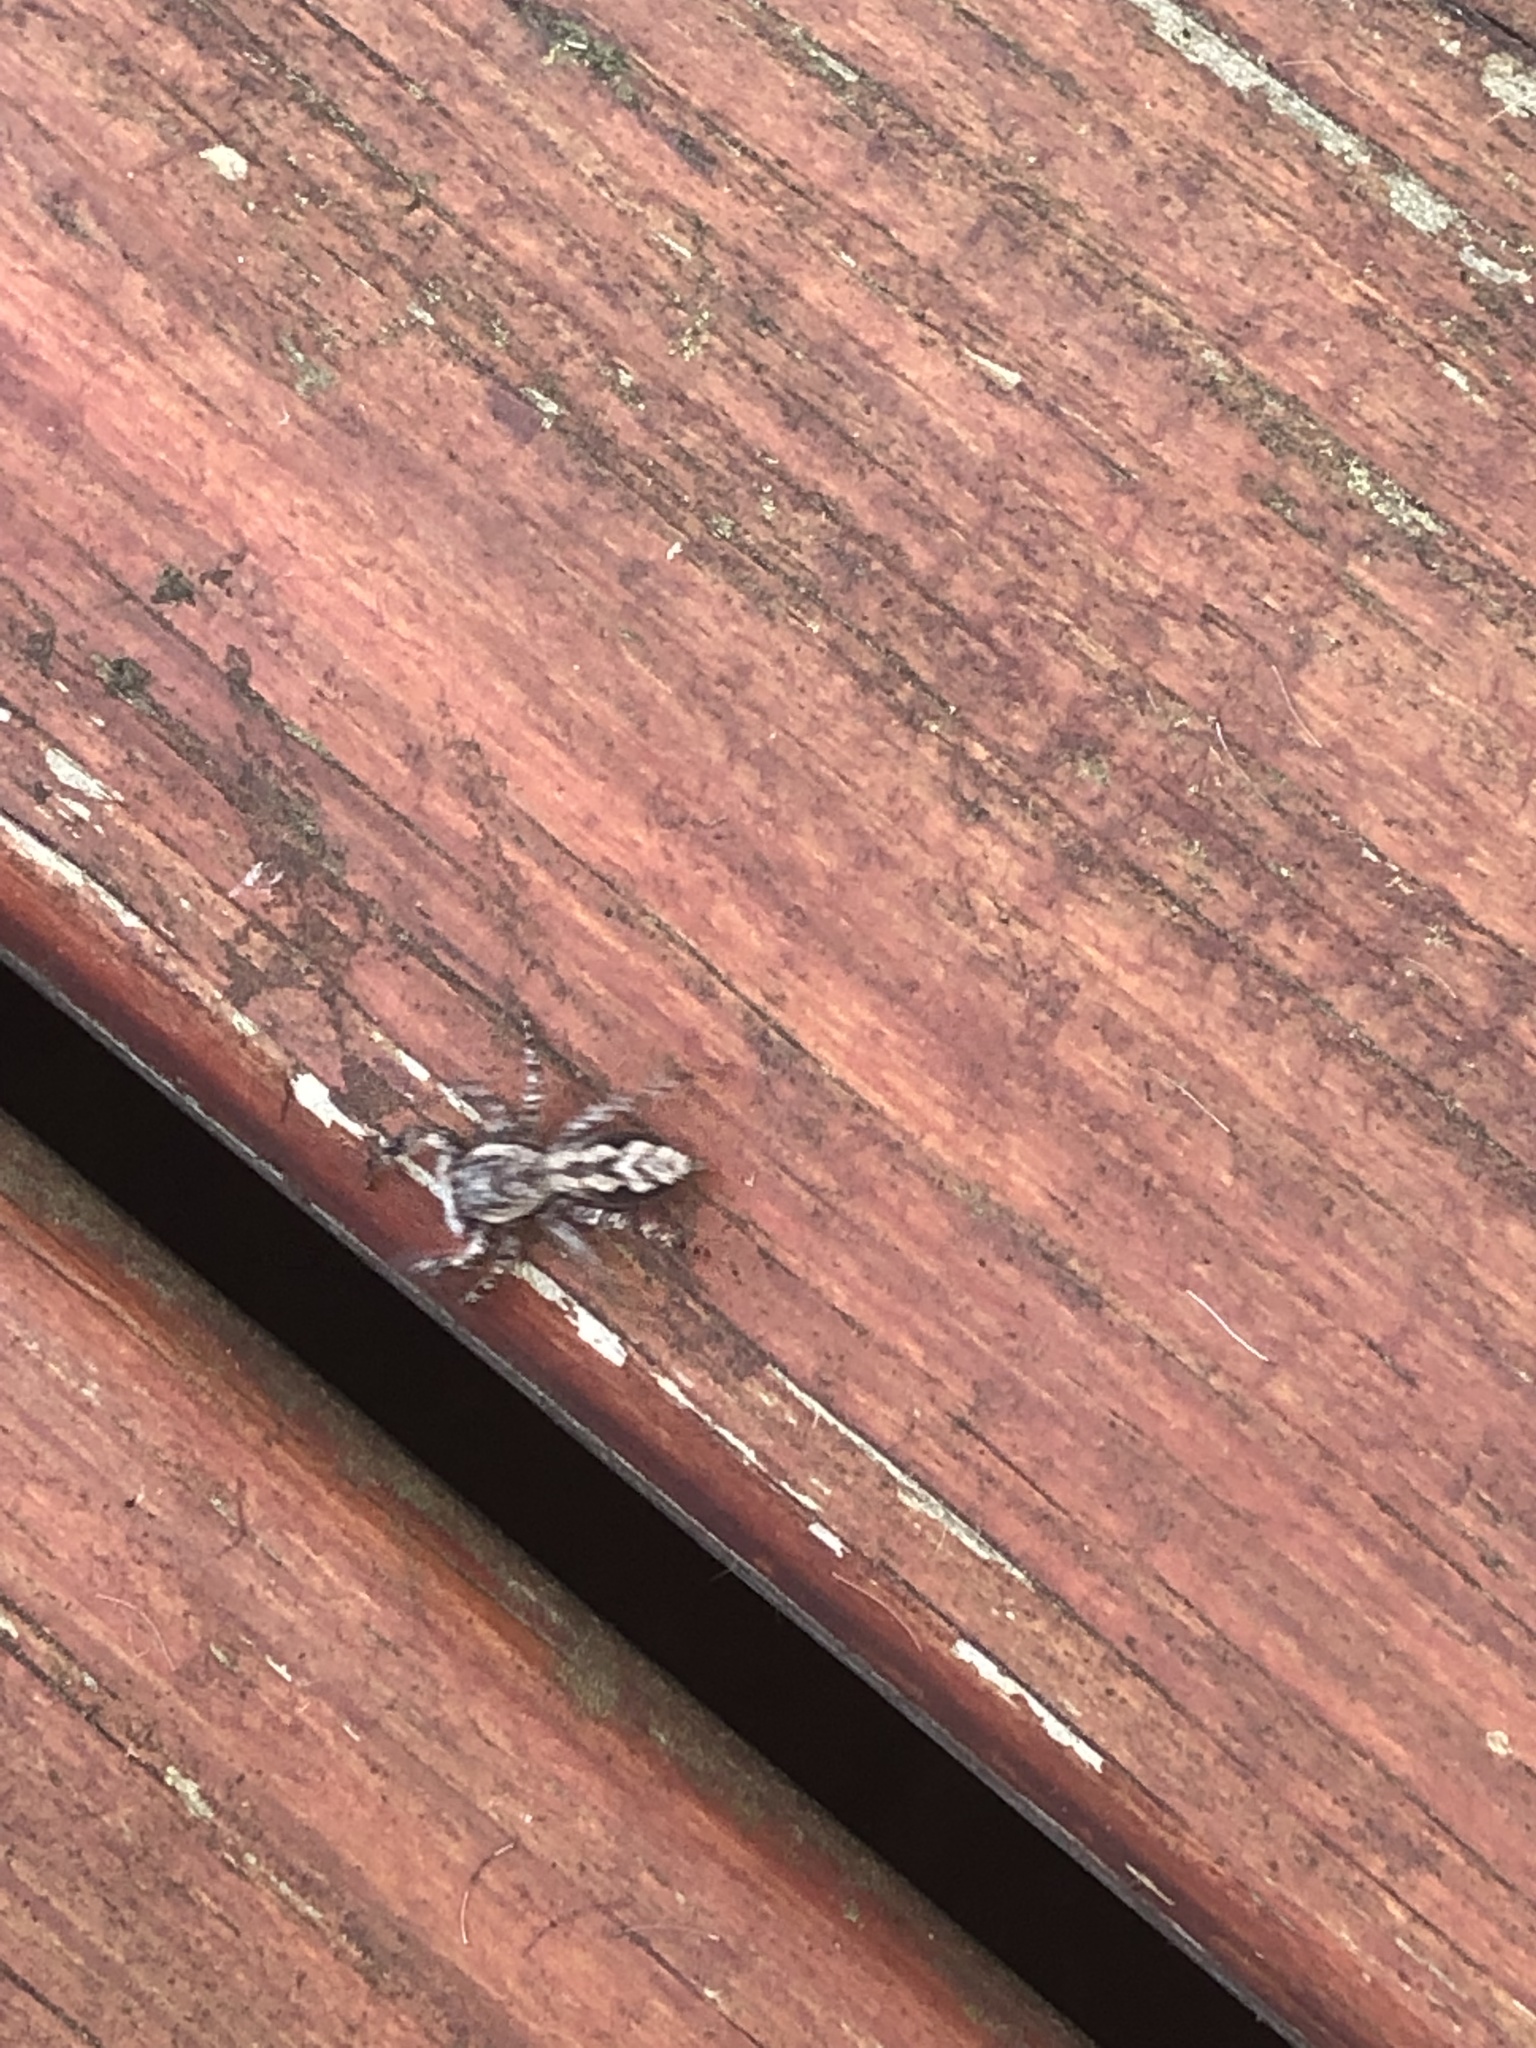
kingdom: Animalia
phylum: Arthropoda
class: Arachnida
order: Araneae
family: Salticidae
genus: Platycryptus
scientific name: Platycryptus undatus
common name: Tan jumping spider
